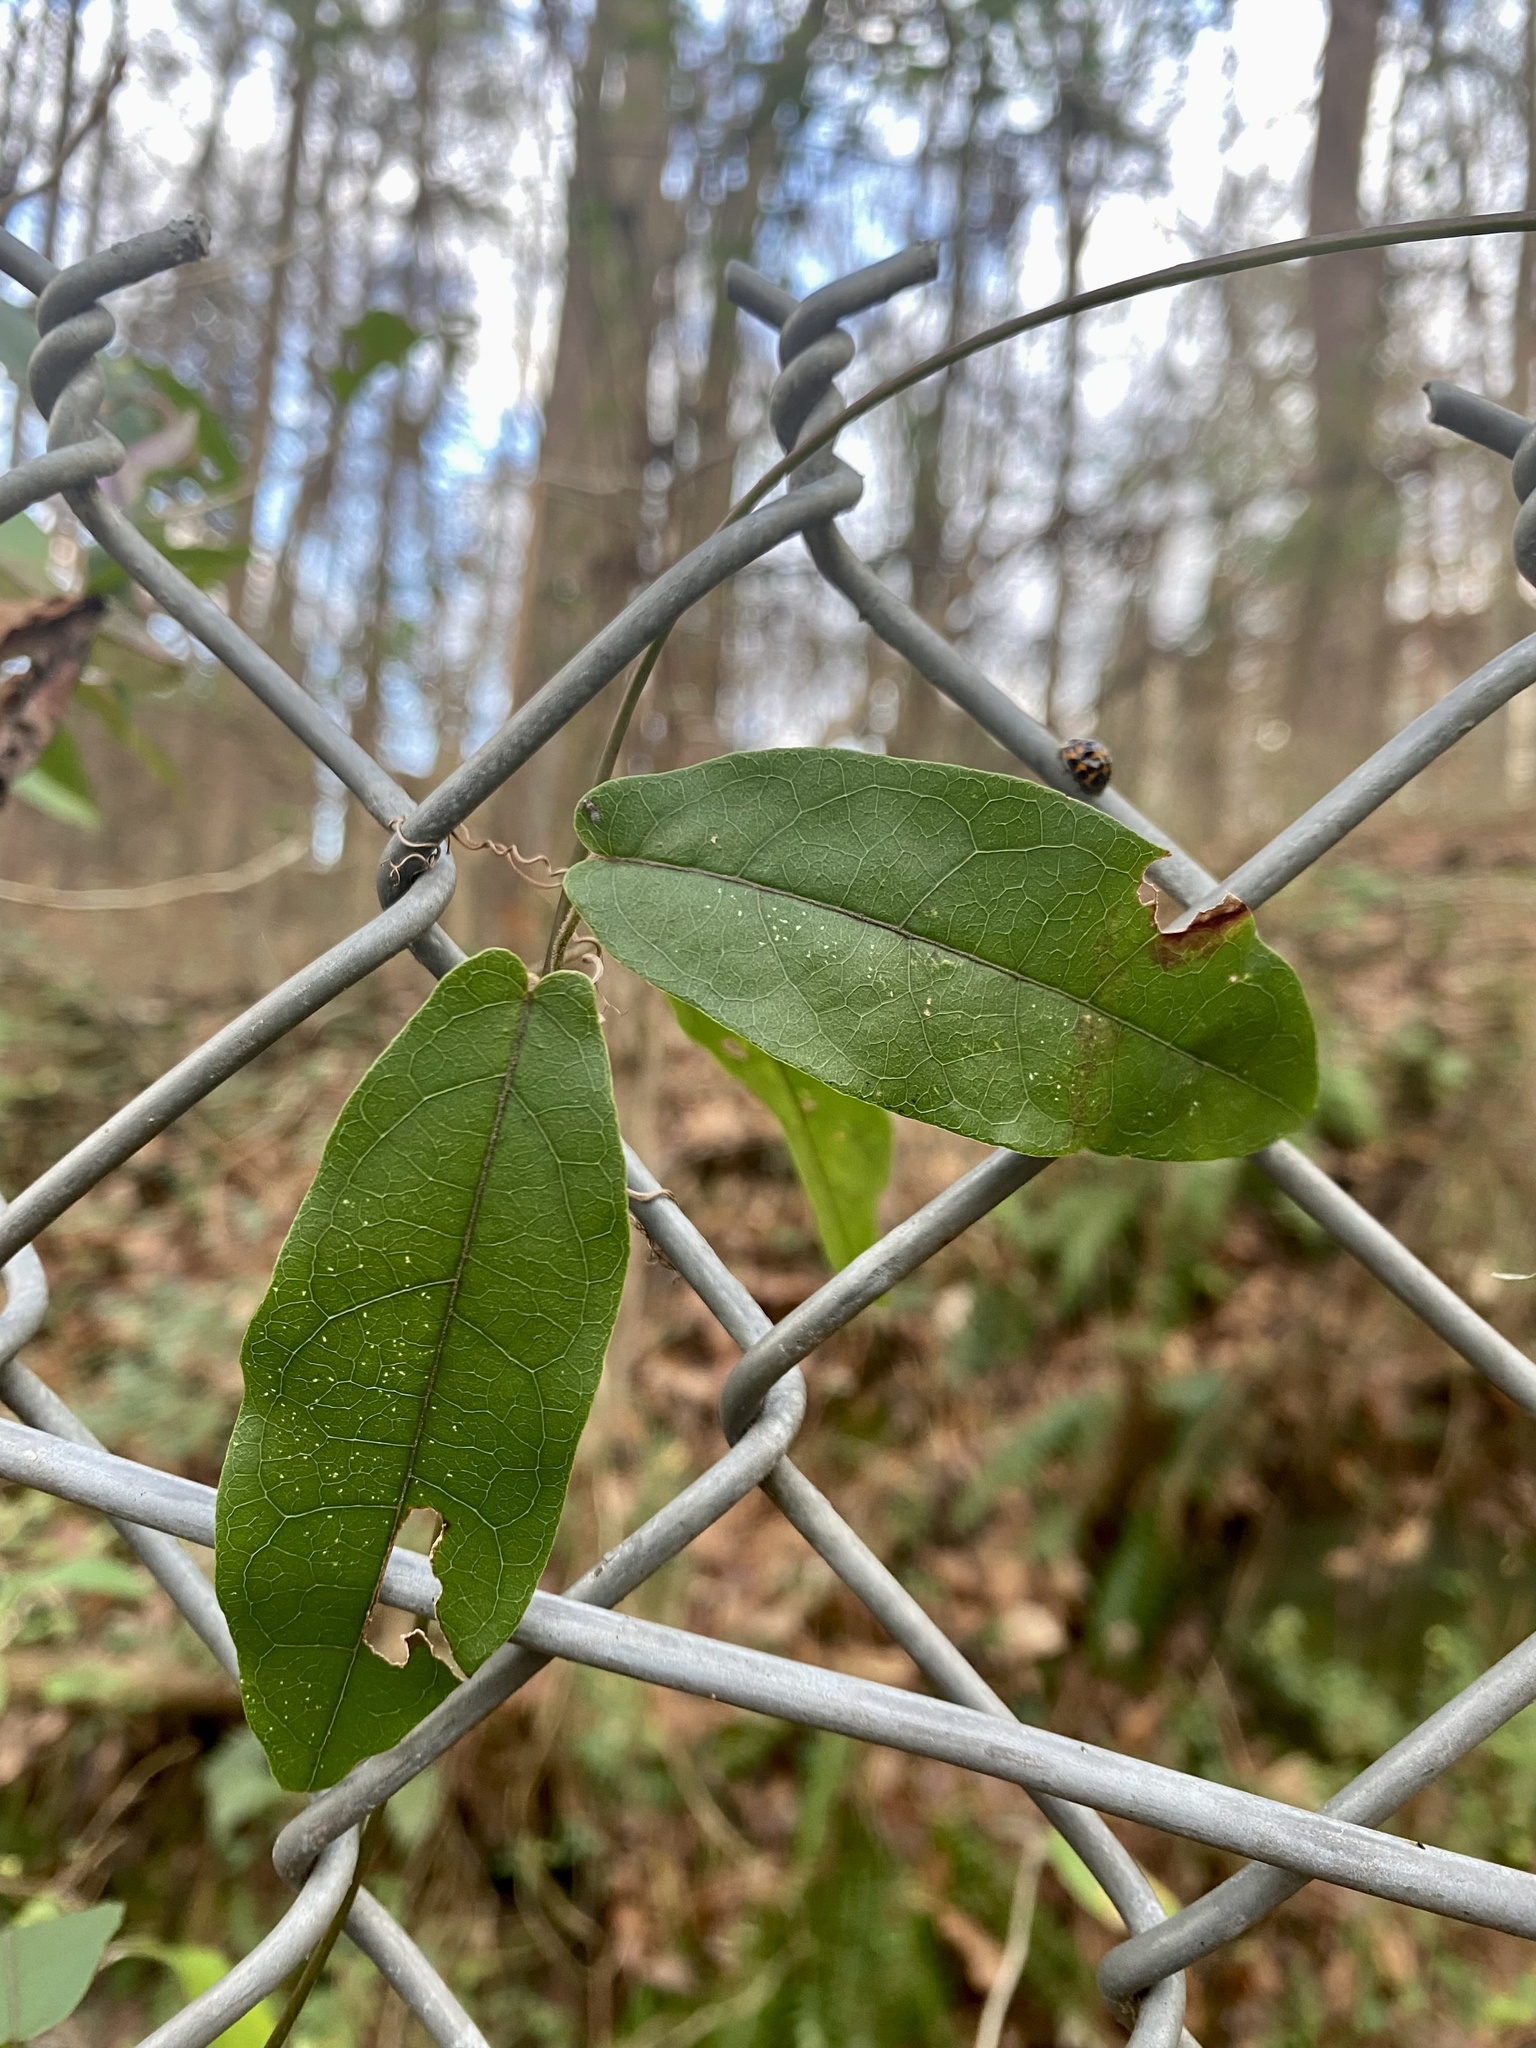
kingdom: Plantae
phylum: Tracheophyta
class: Magnoliopsida
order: Lamiales
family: Bignoniaceae
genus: Bignonia
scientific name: Bignonia capreolata
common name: Crossvine
